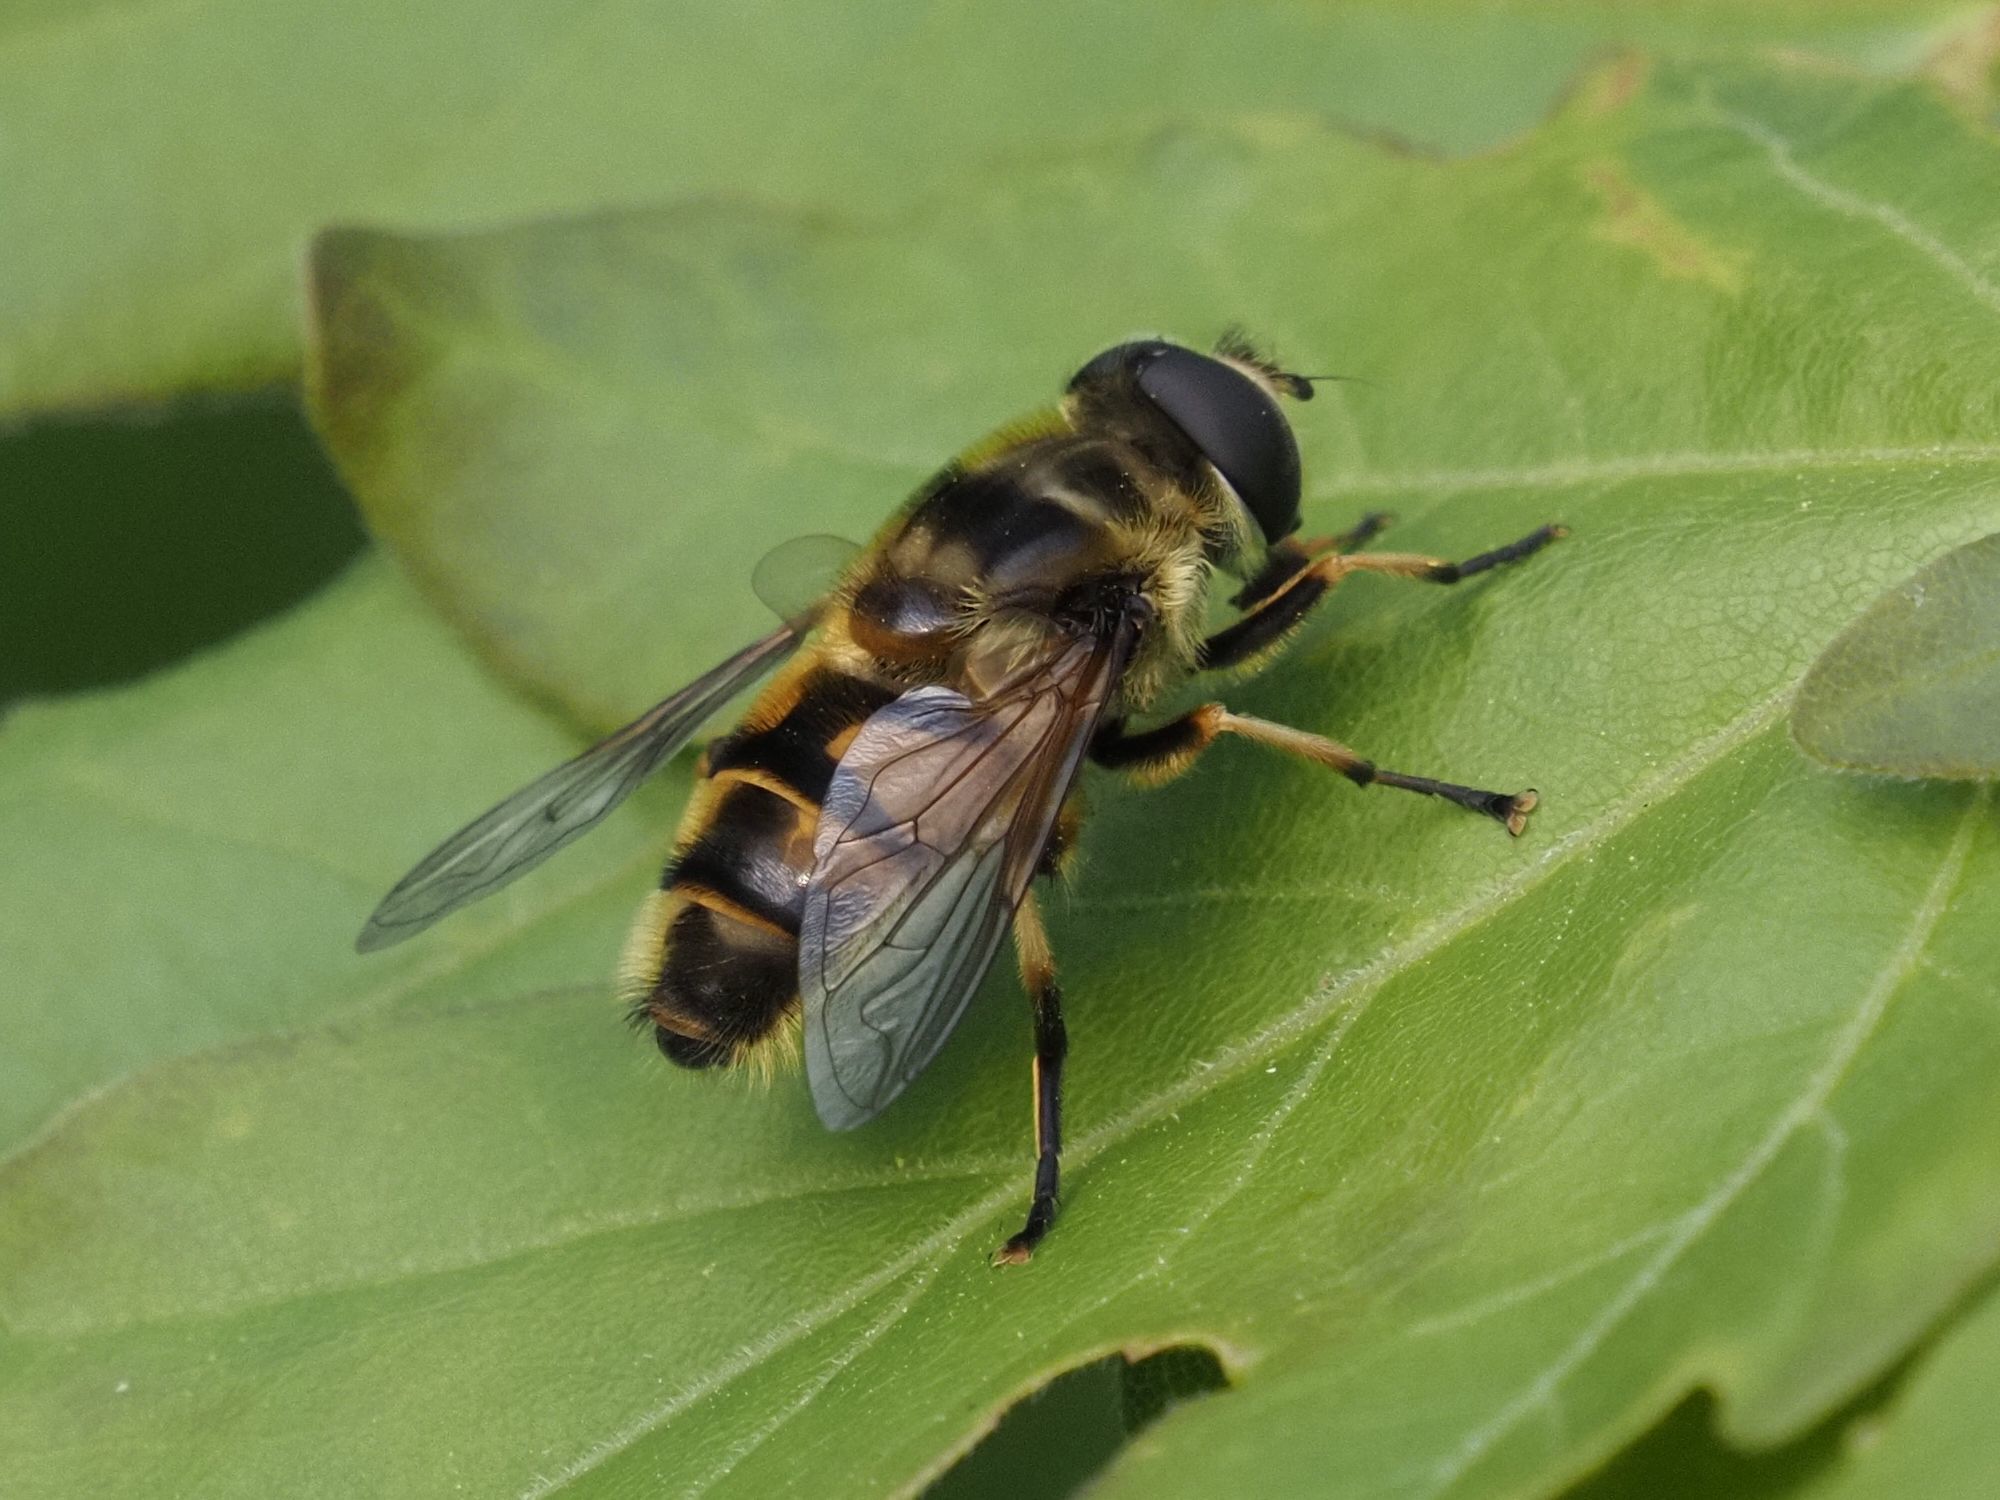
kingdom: Animalia
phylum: Arthropoda
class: Insecta
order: Diptera
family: Syrphidae
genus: Myathropa
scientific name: Myathropa florea
